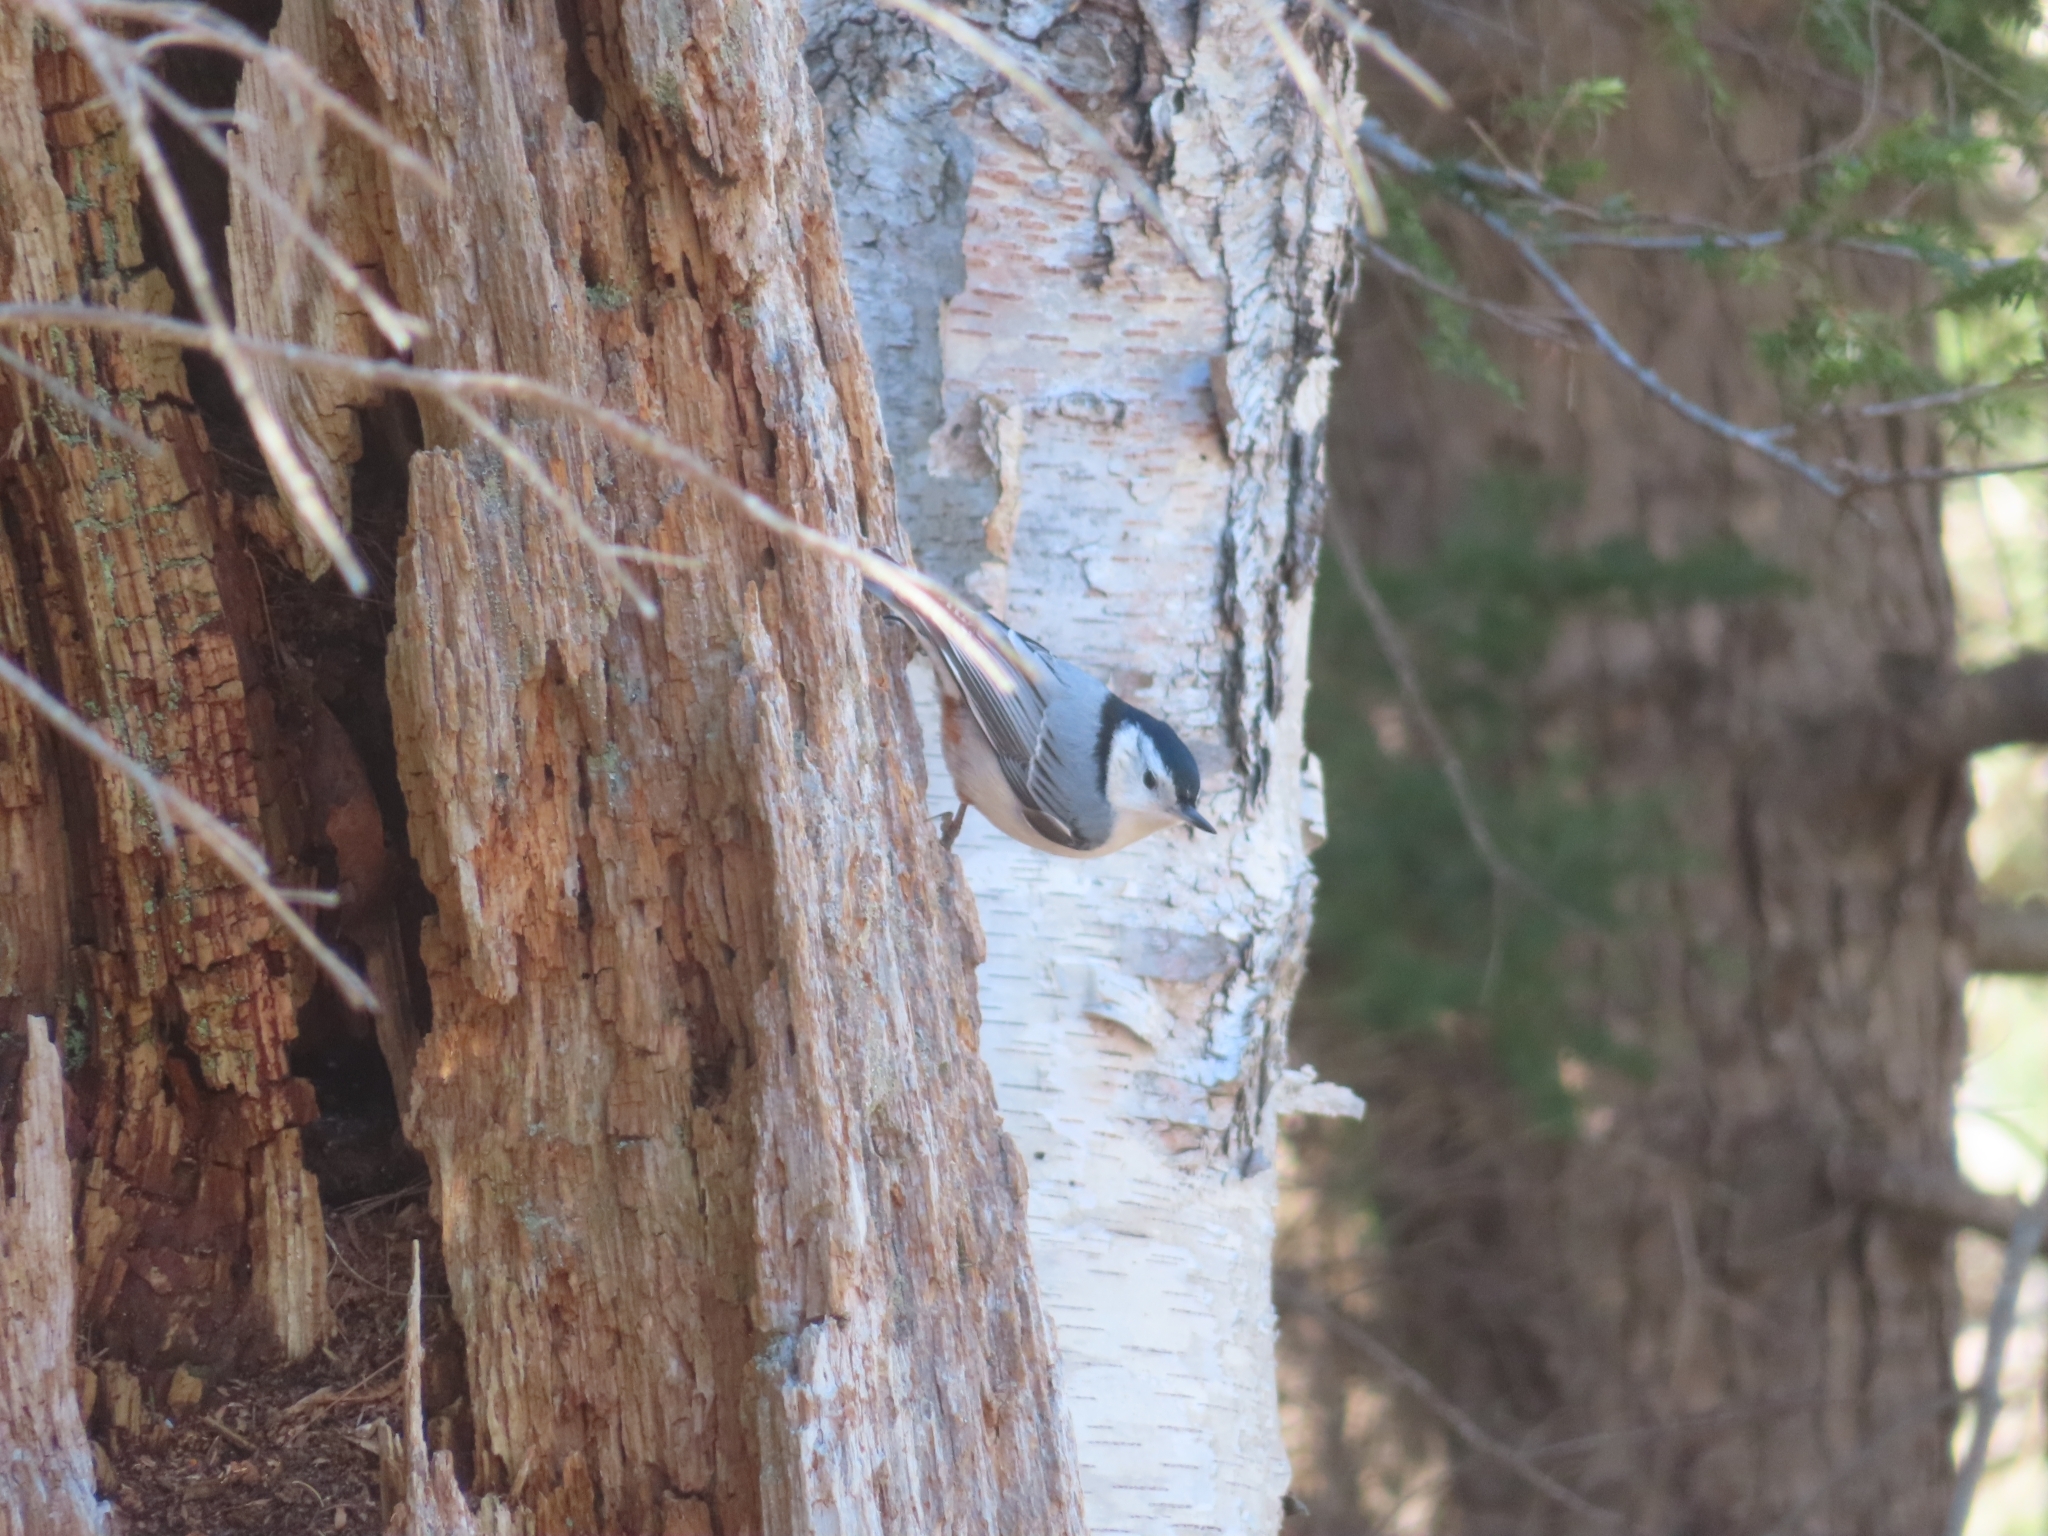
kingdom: Animalia
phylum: Chordata
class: Aves
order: Passeriformes
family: Sittidae
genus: Sitta
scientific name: Sitta carolinensis
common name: White-breasted nuthatch
